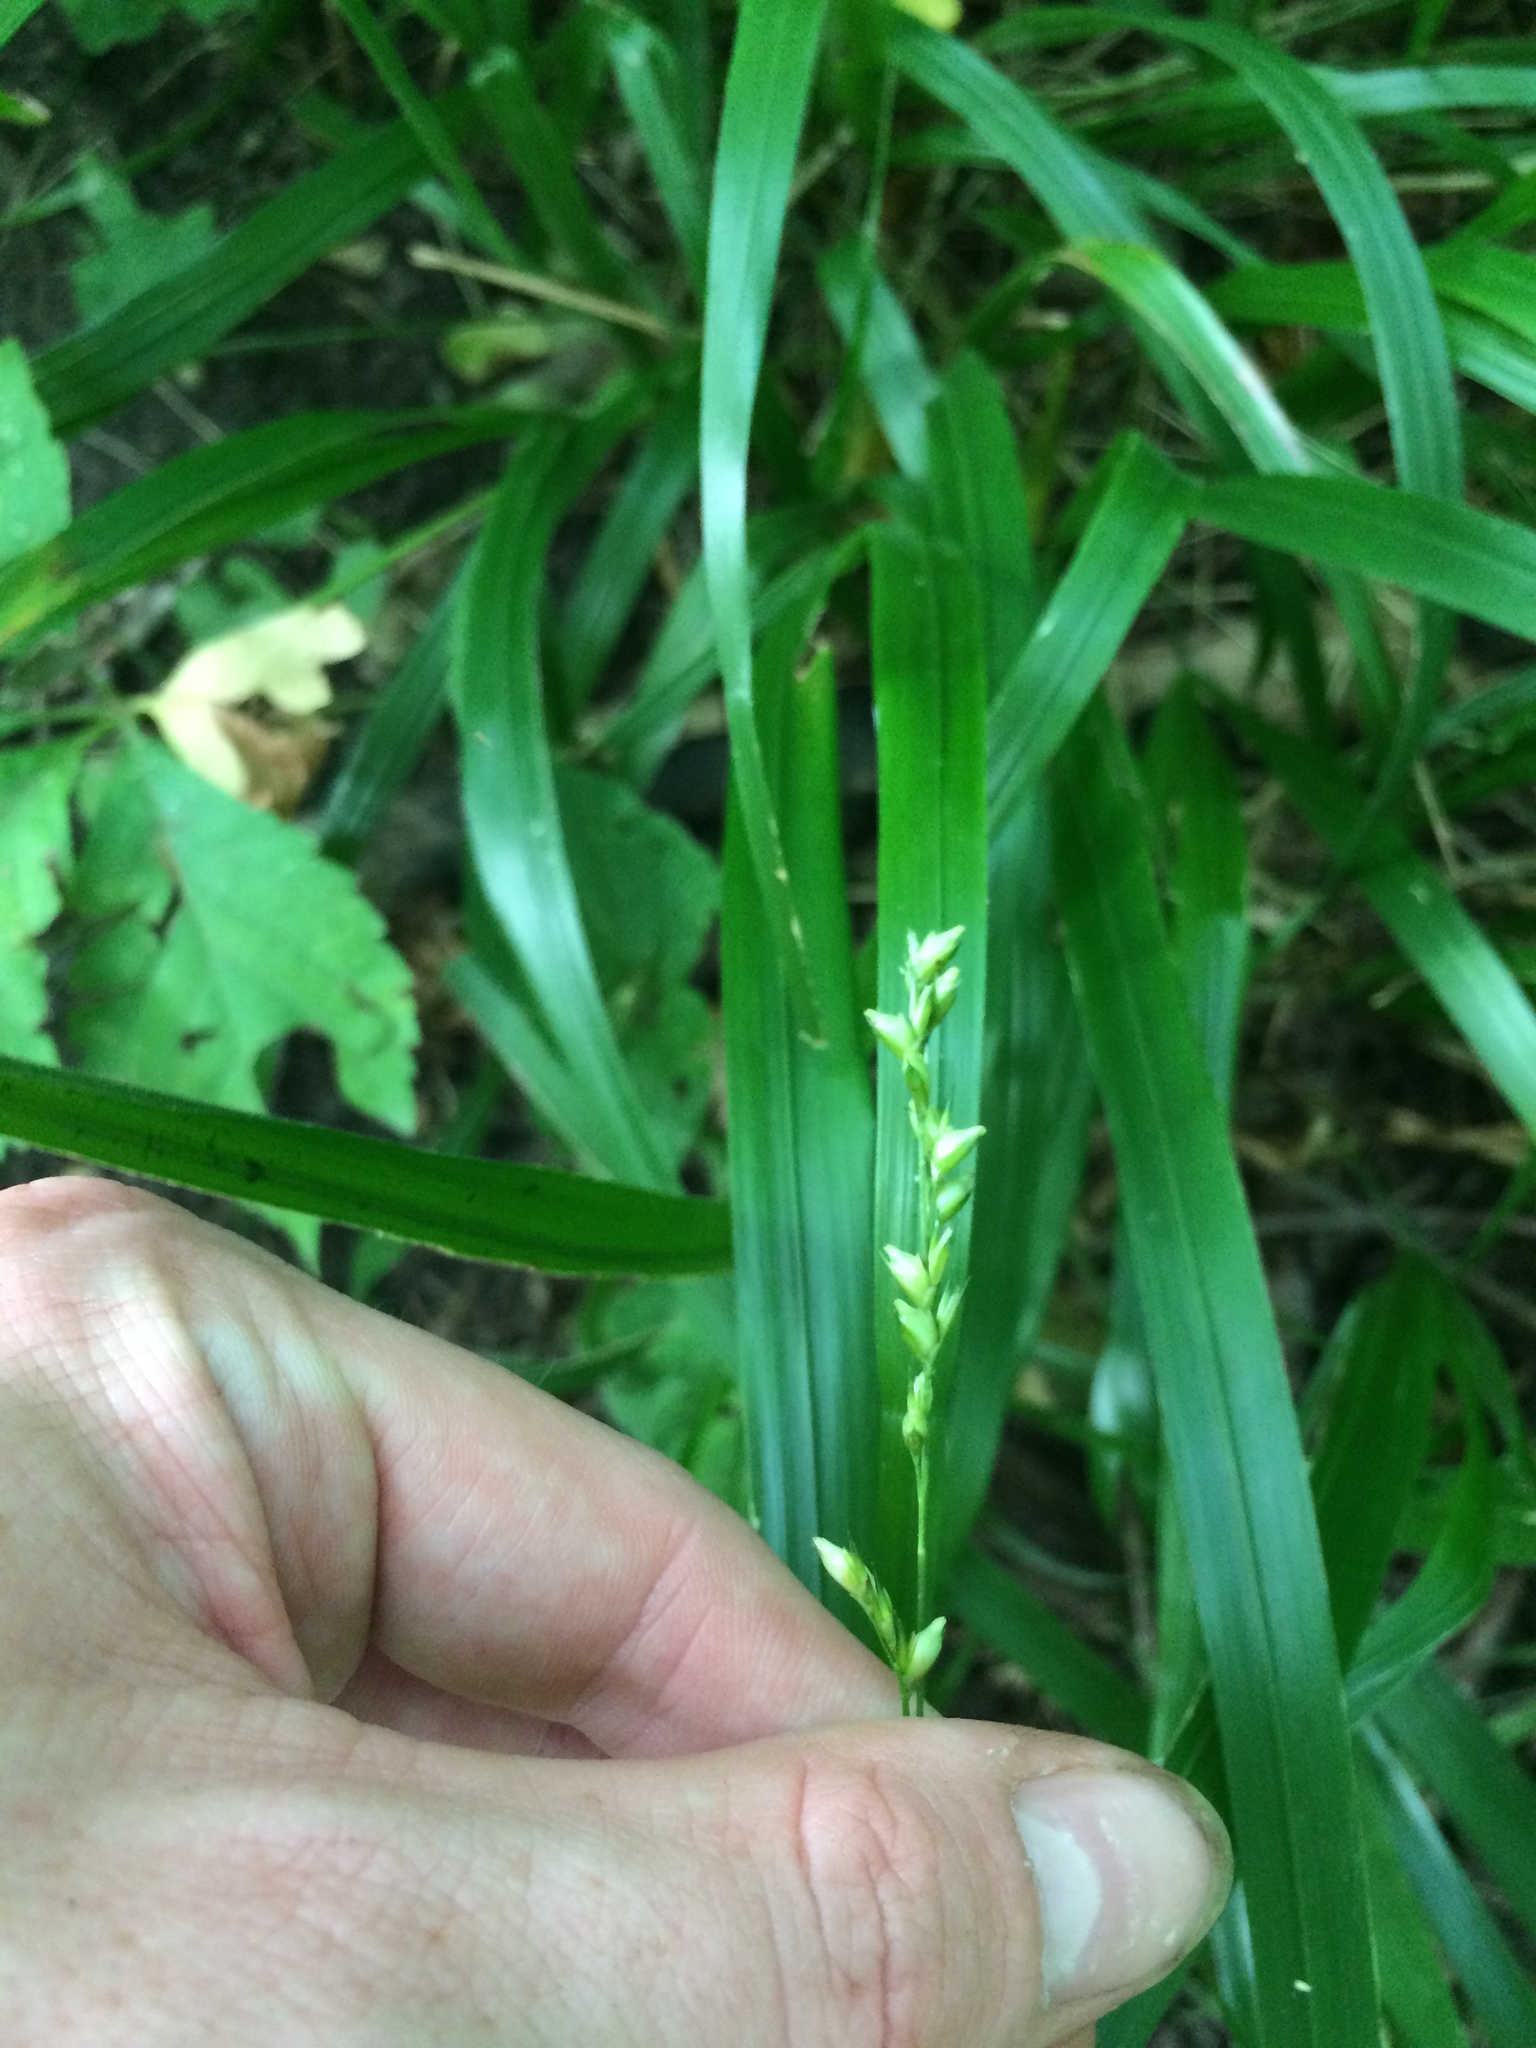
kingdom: Plantae
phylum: Tracheophyta
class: Liliopsida
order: Poales
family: Poaceae
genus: Diarrhena
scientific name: Diarrhena obovata
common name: Beakgrass
